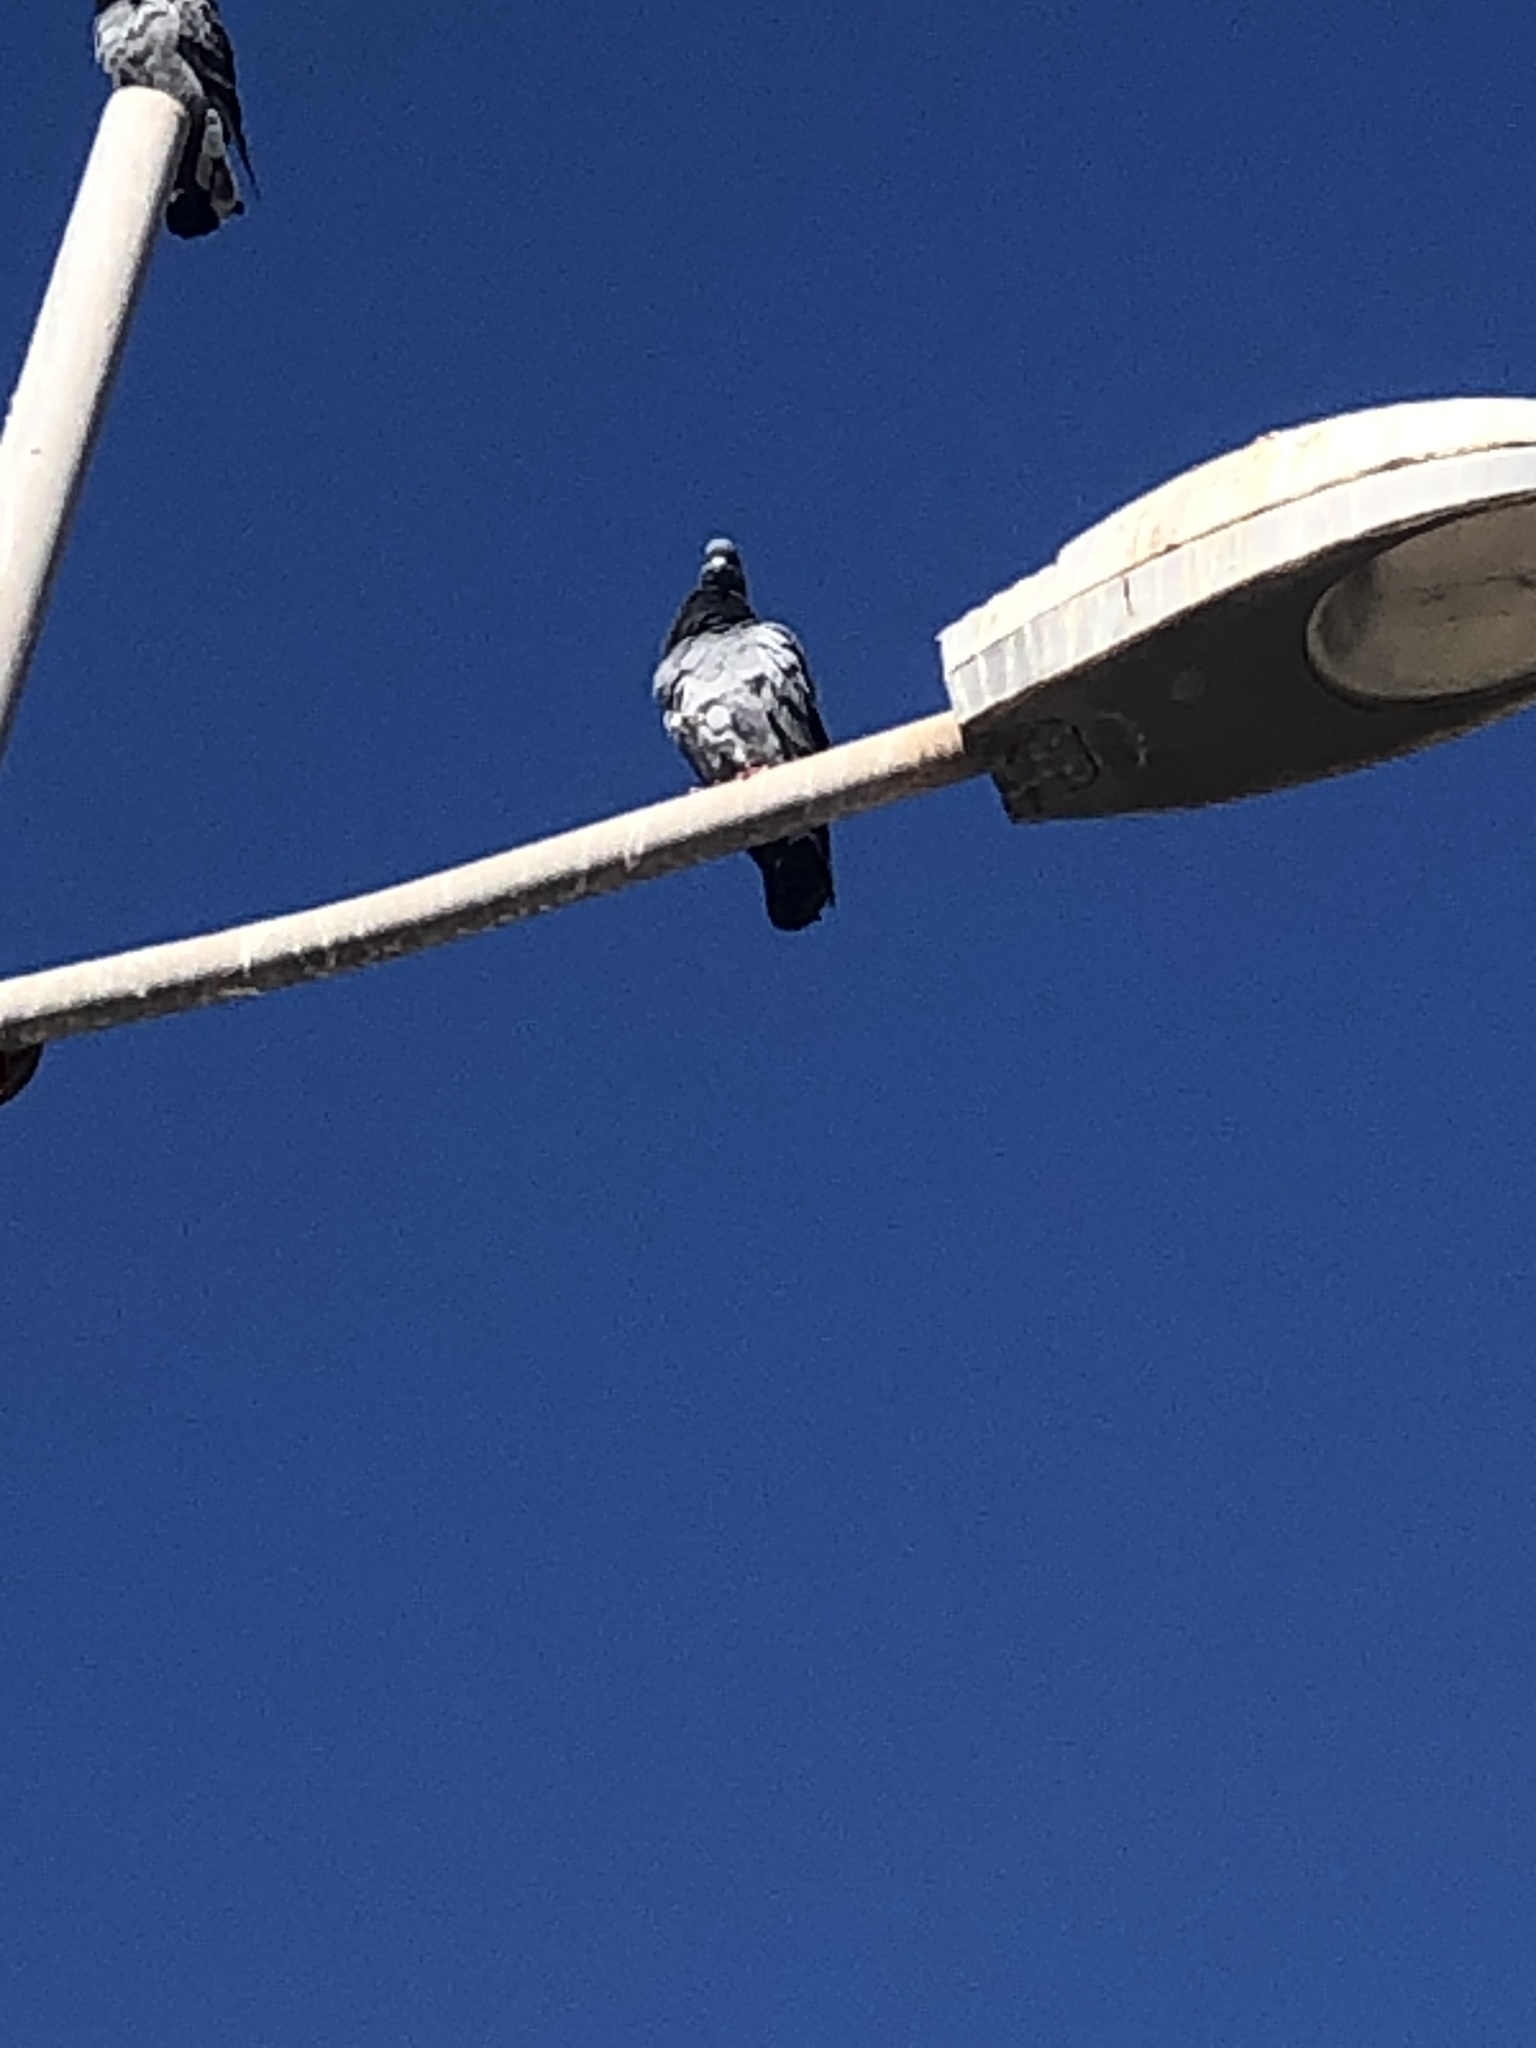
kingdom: Animalia
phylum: Chordata
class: Aves
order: Columbiformes
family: Columbidae
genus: Columba
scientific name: Columba livia
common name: Rock pigeon
